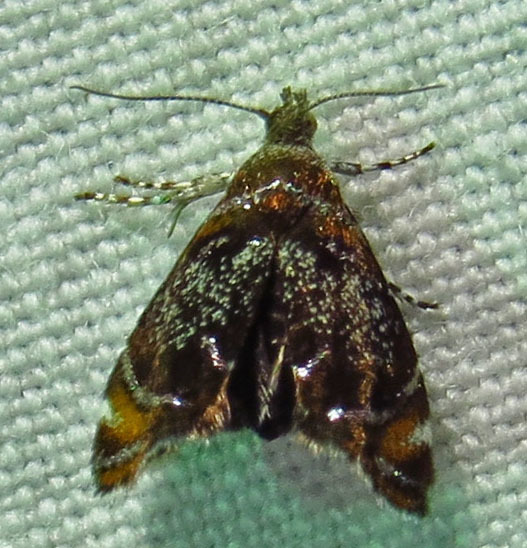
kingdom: Animalia
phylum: Arthropoda
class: Insecta
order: Lepidoptera
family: Choreutidae
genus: Prochoreutis
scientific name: Prochoreutis inflatella
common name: Skullcap skeletonizer moth
